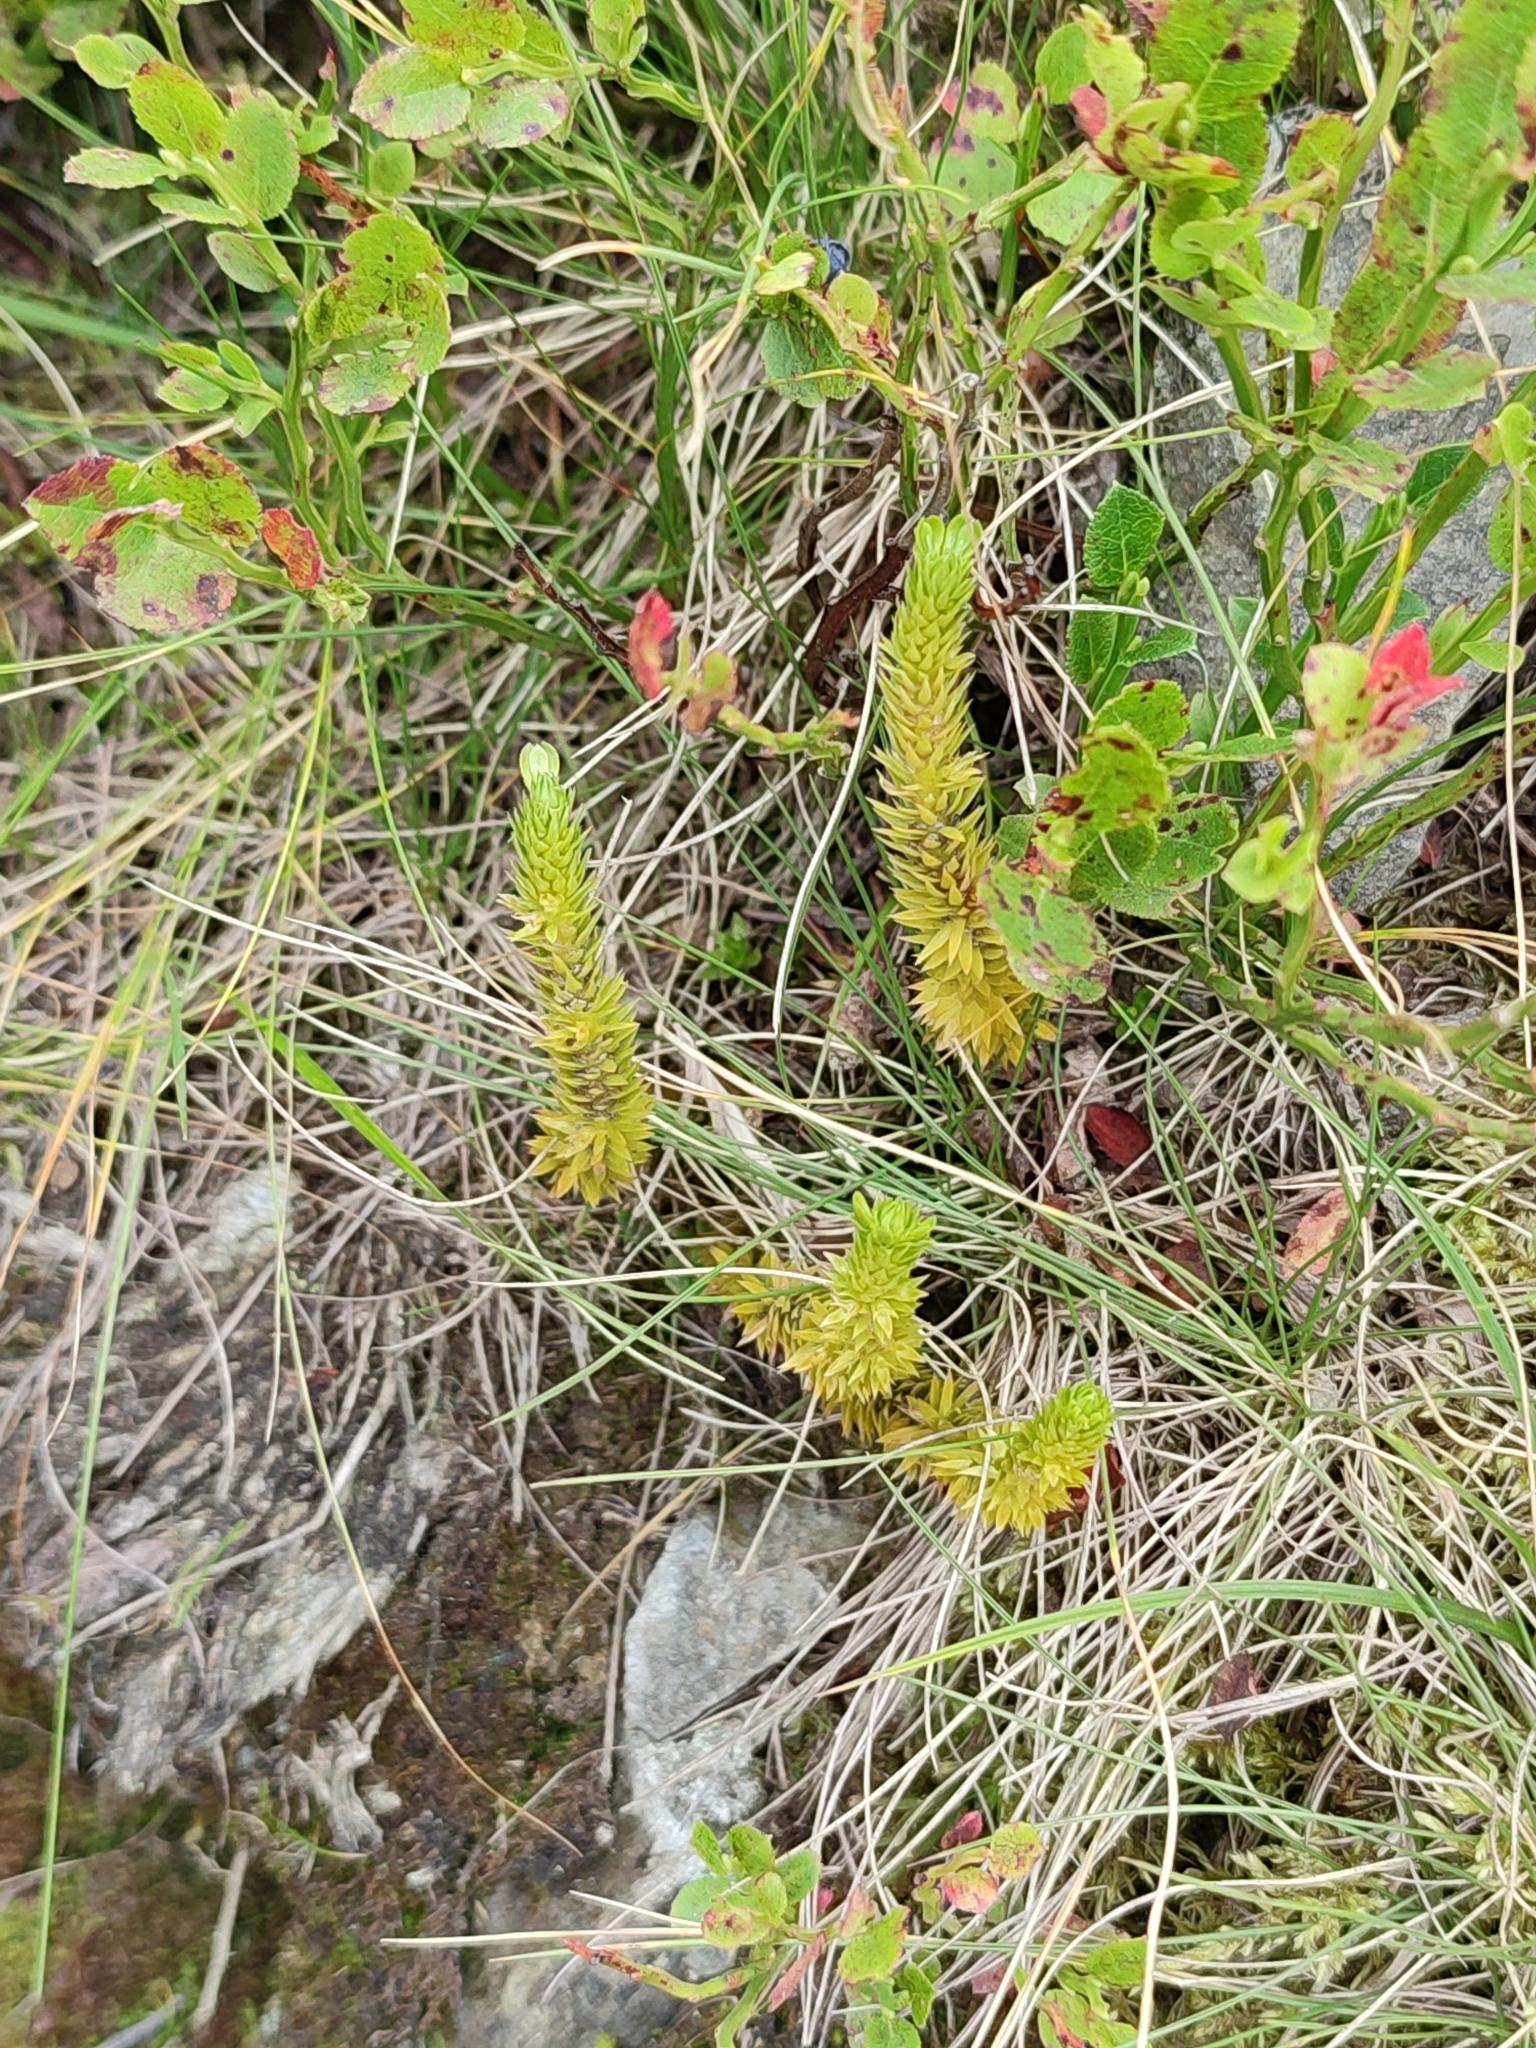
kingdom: Plantae
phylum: Tracheophyta
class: Lycopodiopsida
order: Lycopodiales
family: Lycopodiaceae
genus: Huperzia
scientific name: Huperzia selago
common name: Northern firmoss
